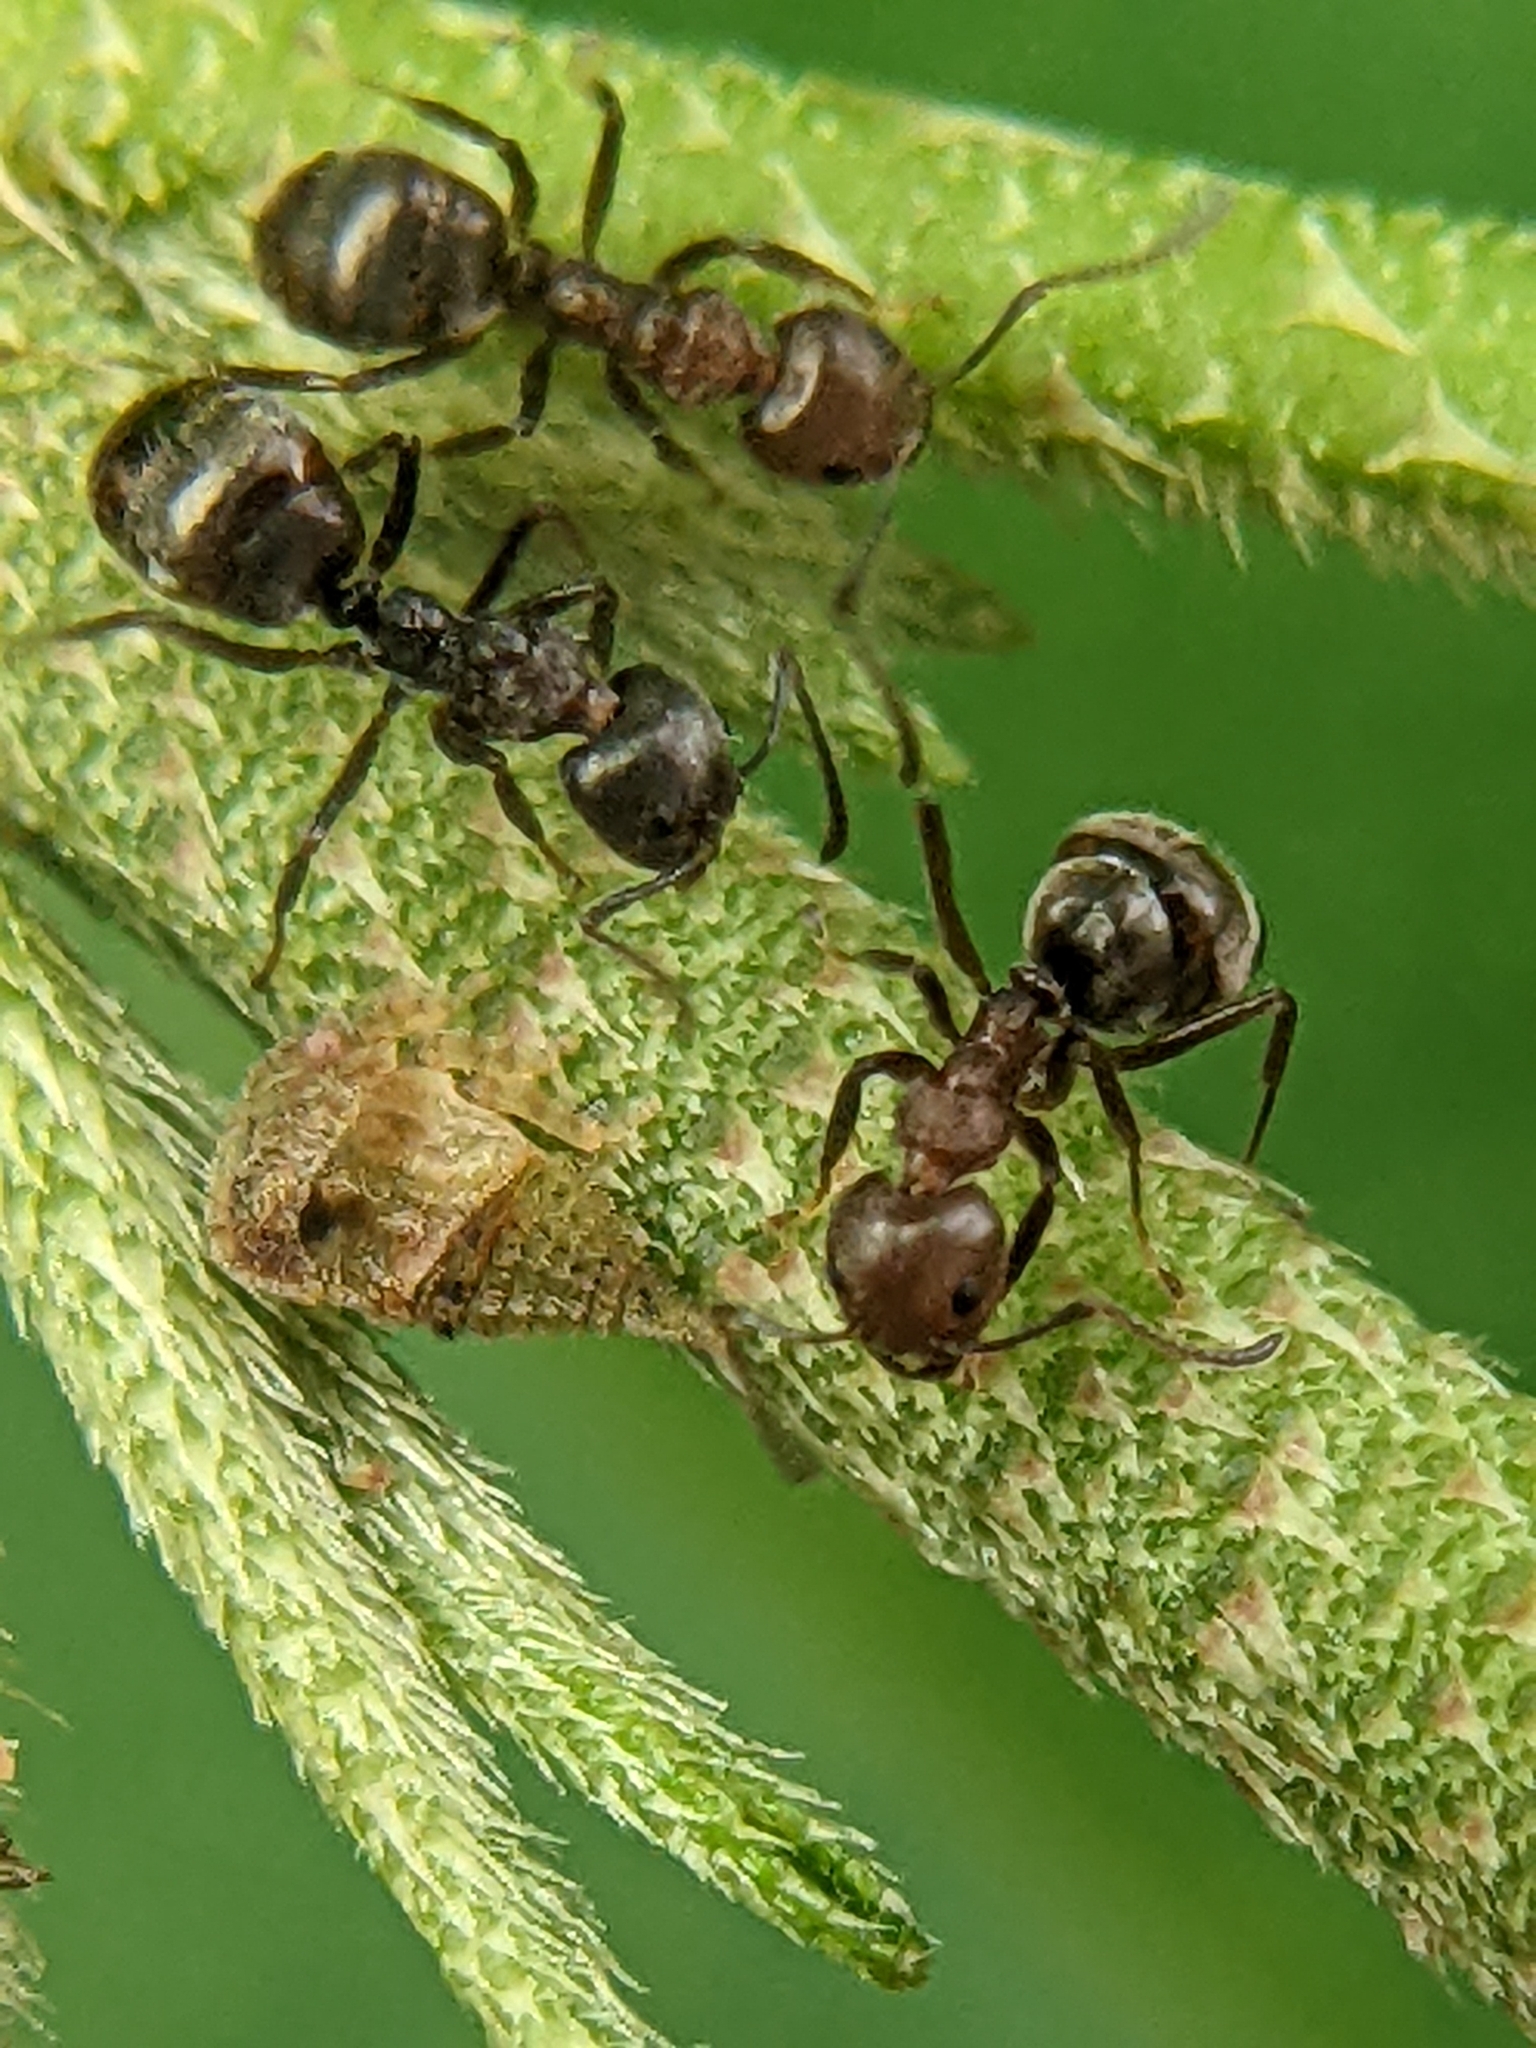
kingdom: Animalia
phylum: Arthropoda
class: Insecta
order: Hymenoptera
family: Formicidae
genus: Dolichoderus
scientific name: Dolichoderus thoracicus
